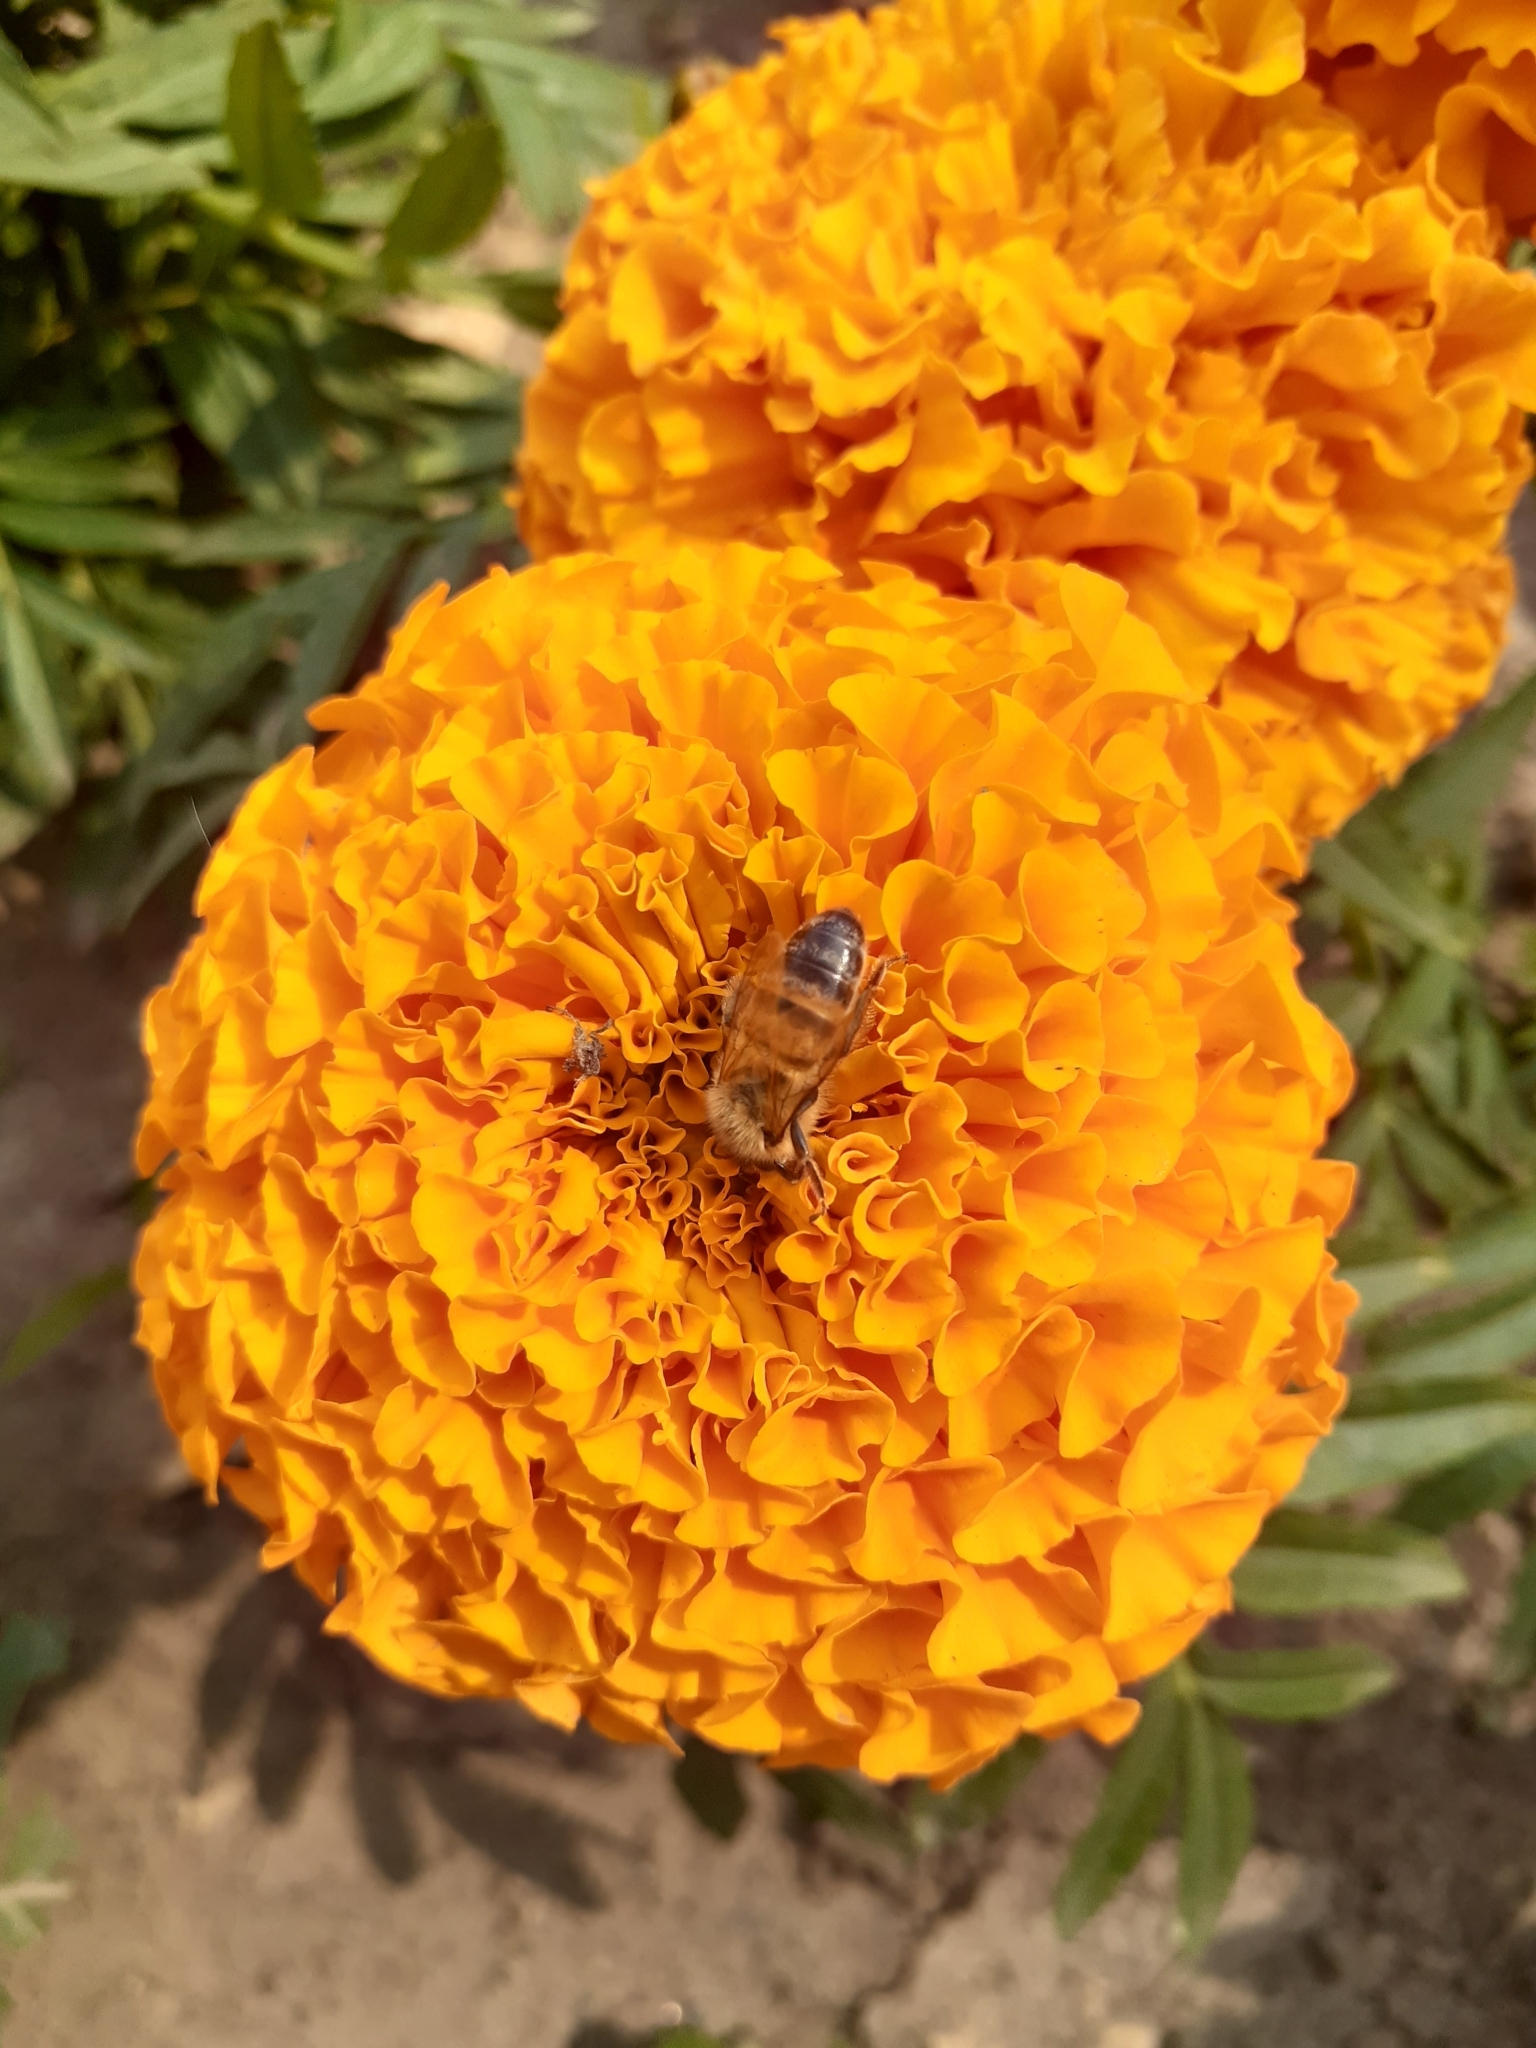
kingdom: Animalia
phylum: Arthropoda
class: Insecta
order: Hymenoptera
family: Apidae
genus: Apis
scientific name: Apis mellifera
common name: Honey bee
